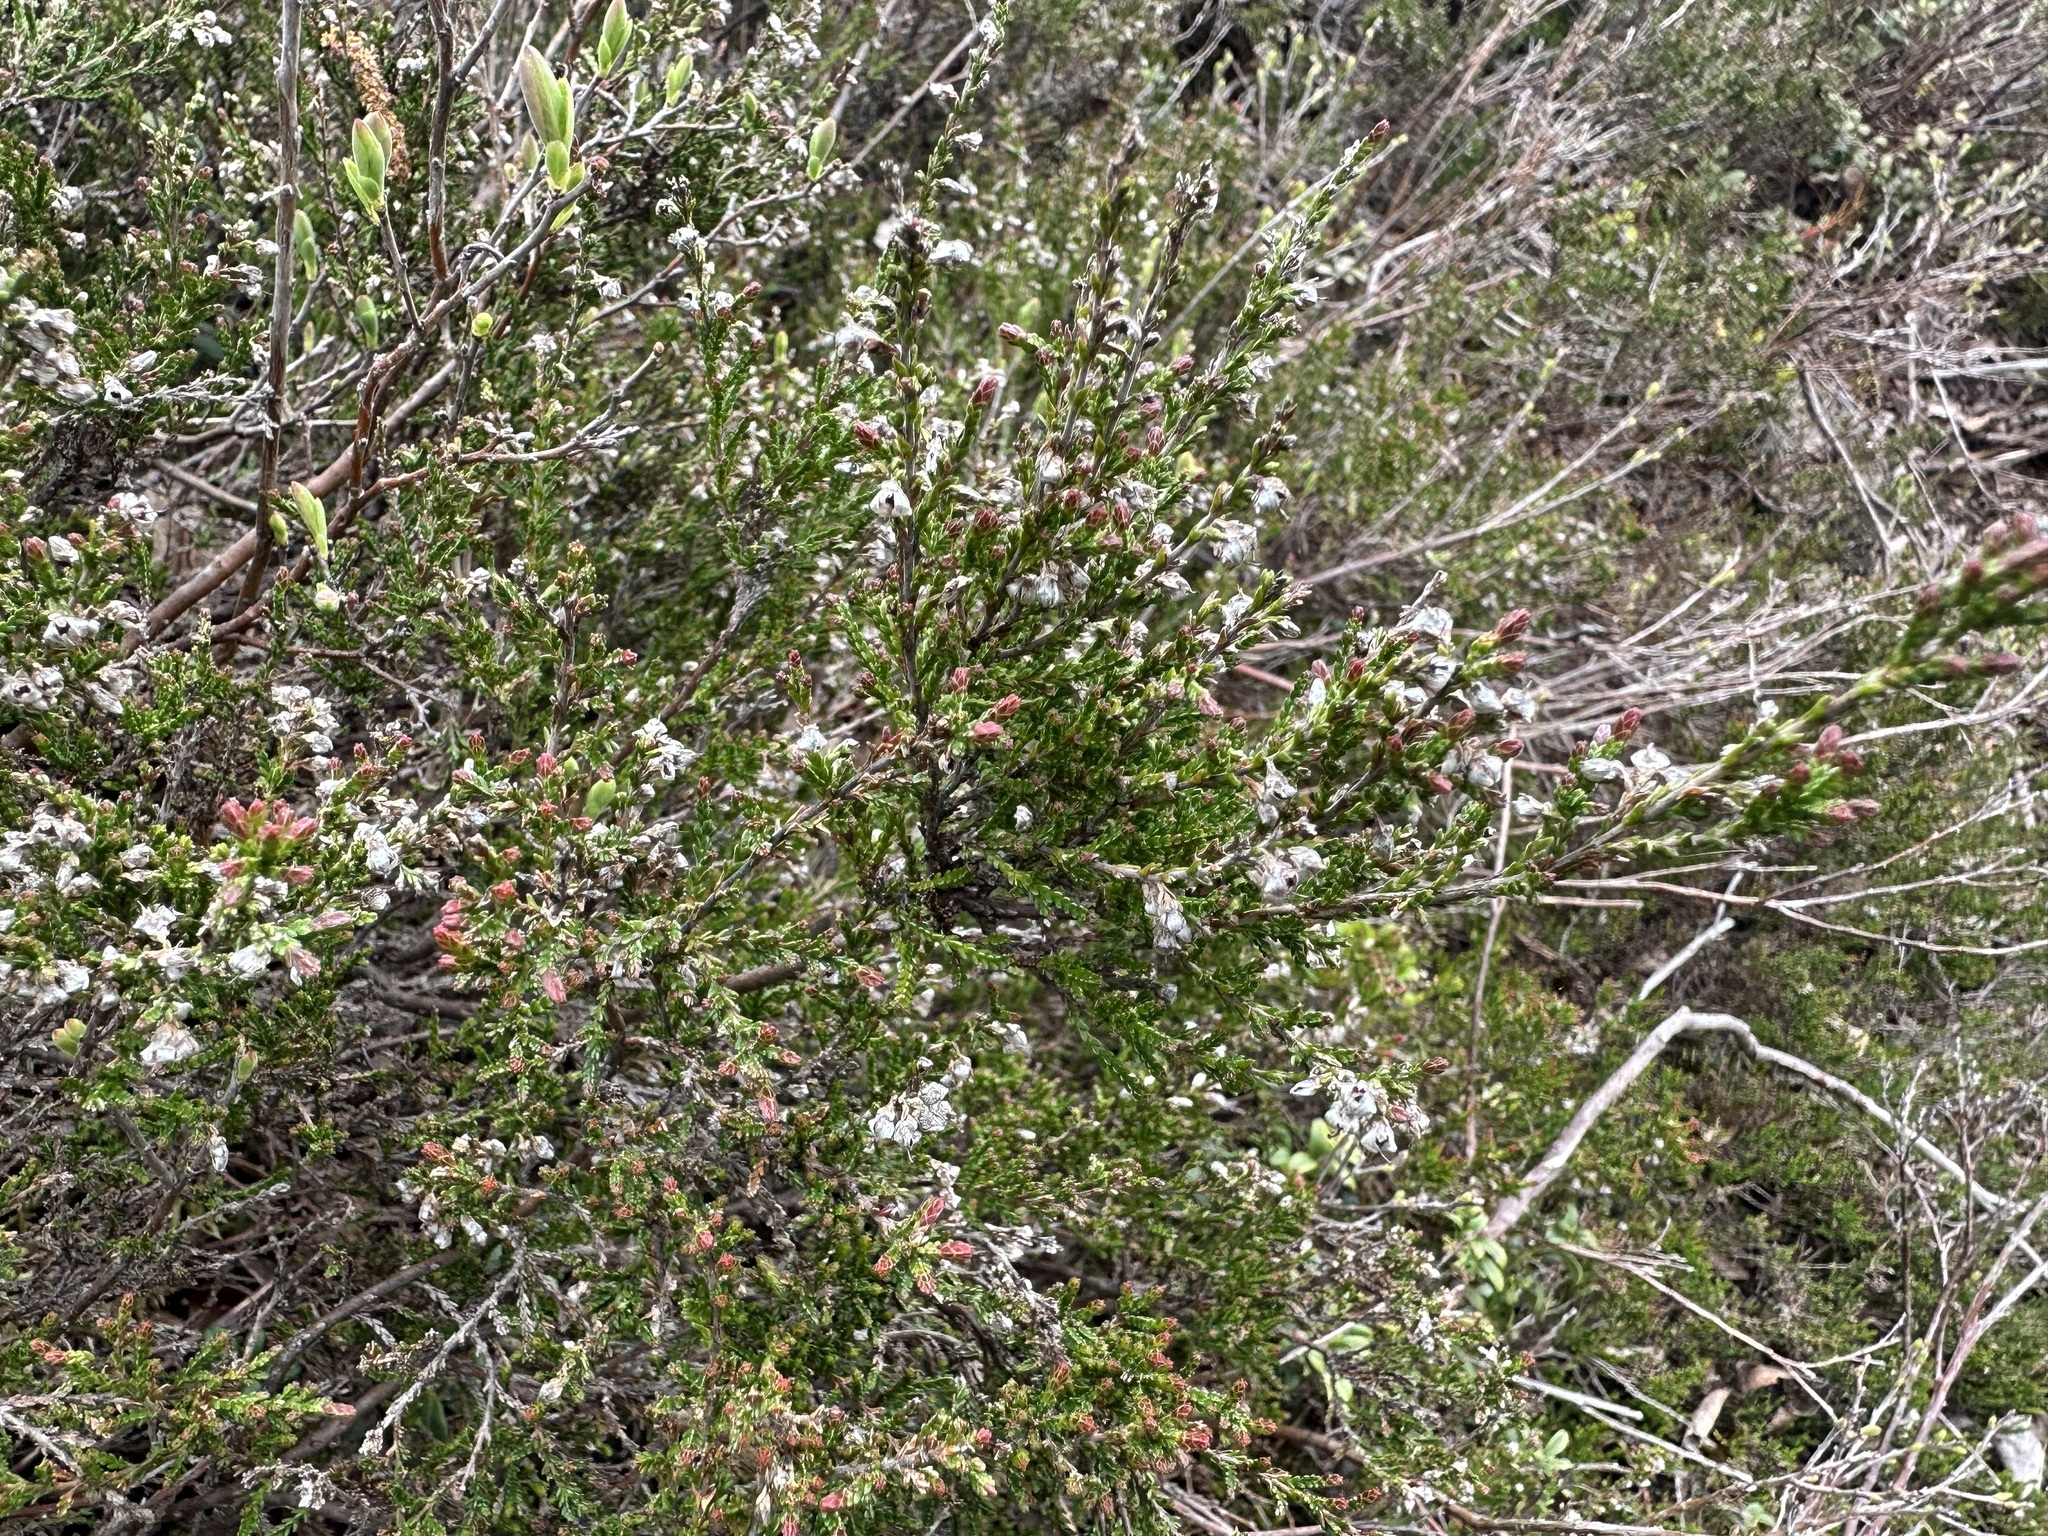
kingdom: Plantae
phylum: Tracheophyta
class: Magnoliopsida
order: Ericales
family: Ericaceae
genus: Calluna
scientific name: Calluna vulgaris
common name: Heather
